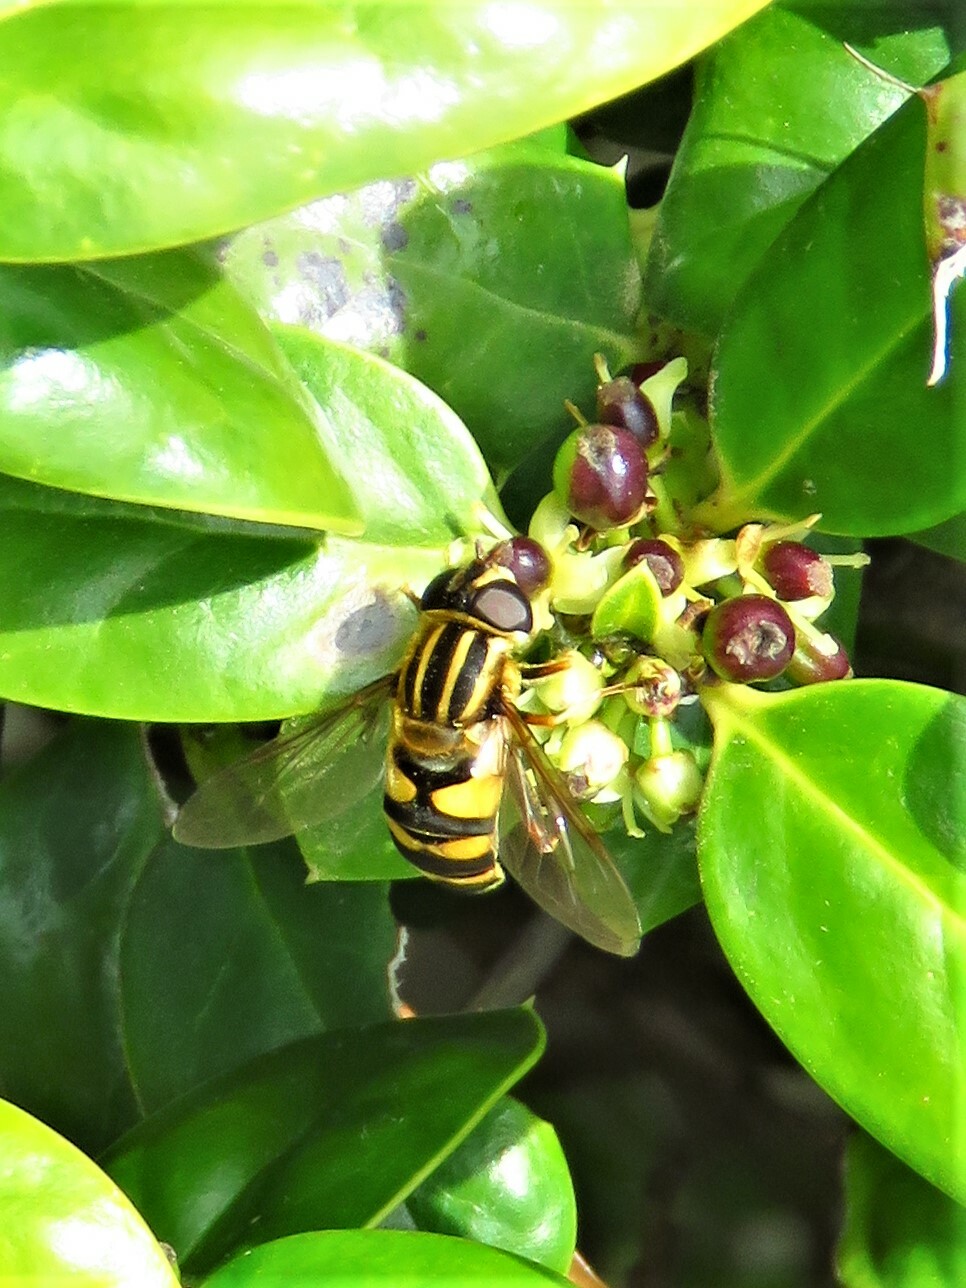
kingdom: Animalia
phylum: Arthropoda
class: Insecta
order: Diptera
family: Syrphidae
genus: Helophilus
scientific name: Helophilus fasciatus
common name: Narrow-headed marsh fly
